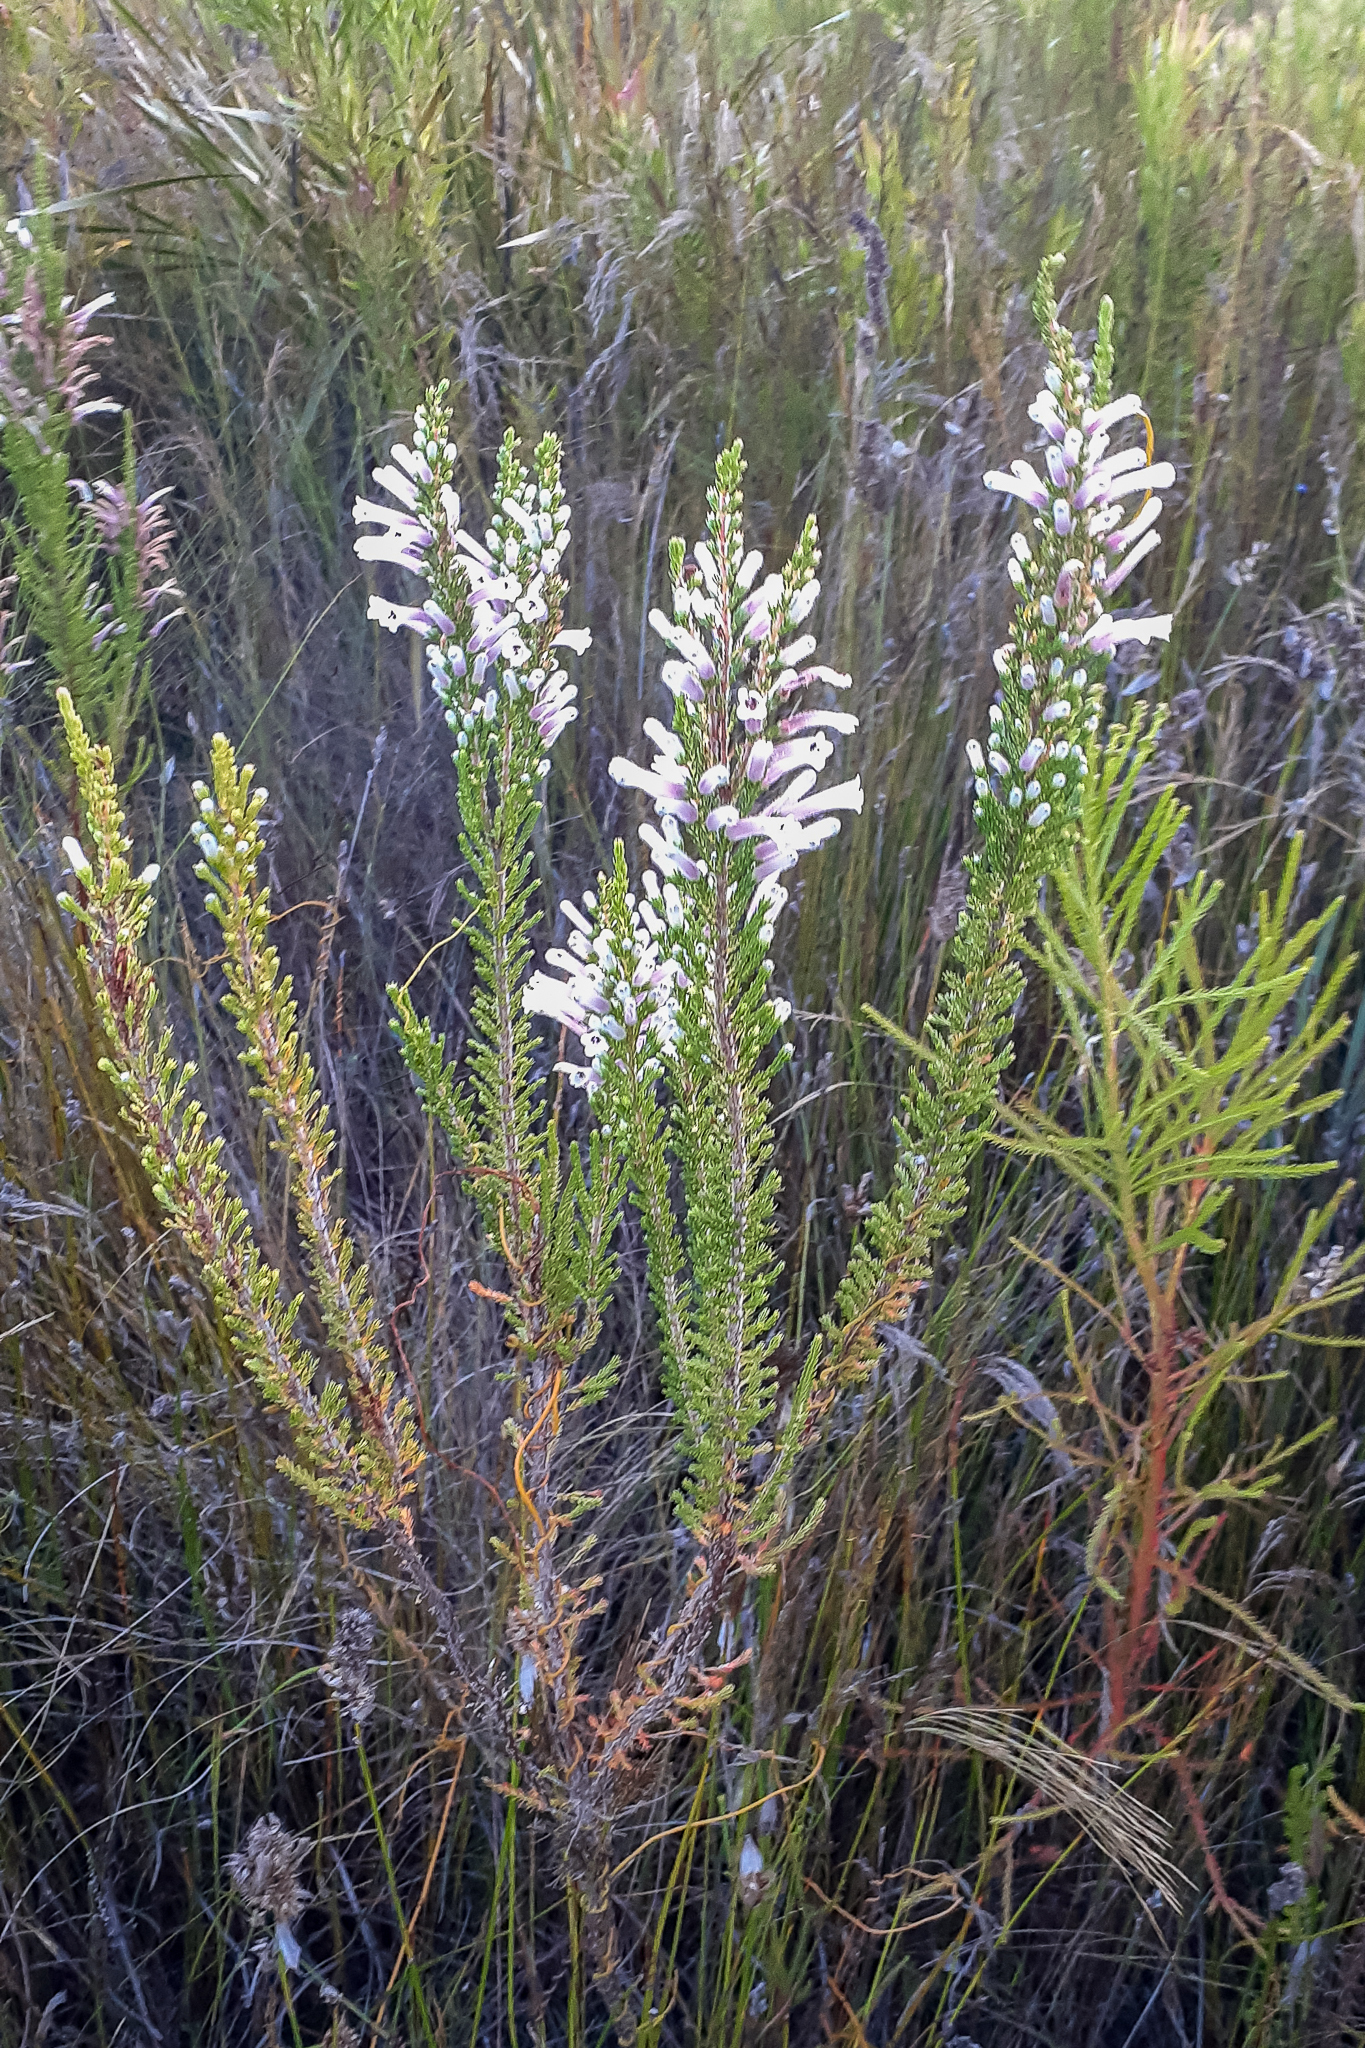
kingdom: Plantae
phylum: Tracheophyta
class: Magnoliopsida
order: Ericales
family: Ericaceae
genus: Erica
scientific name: Erica perspicua
